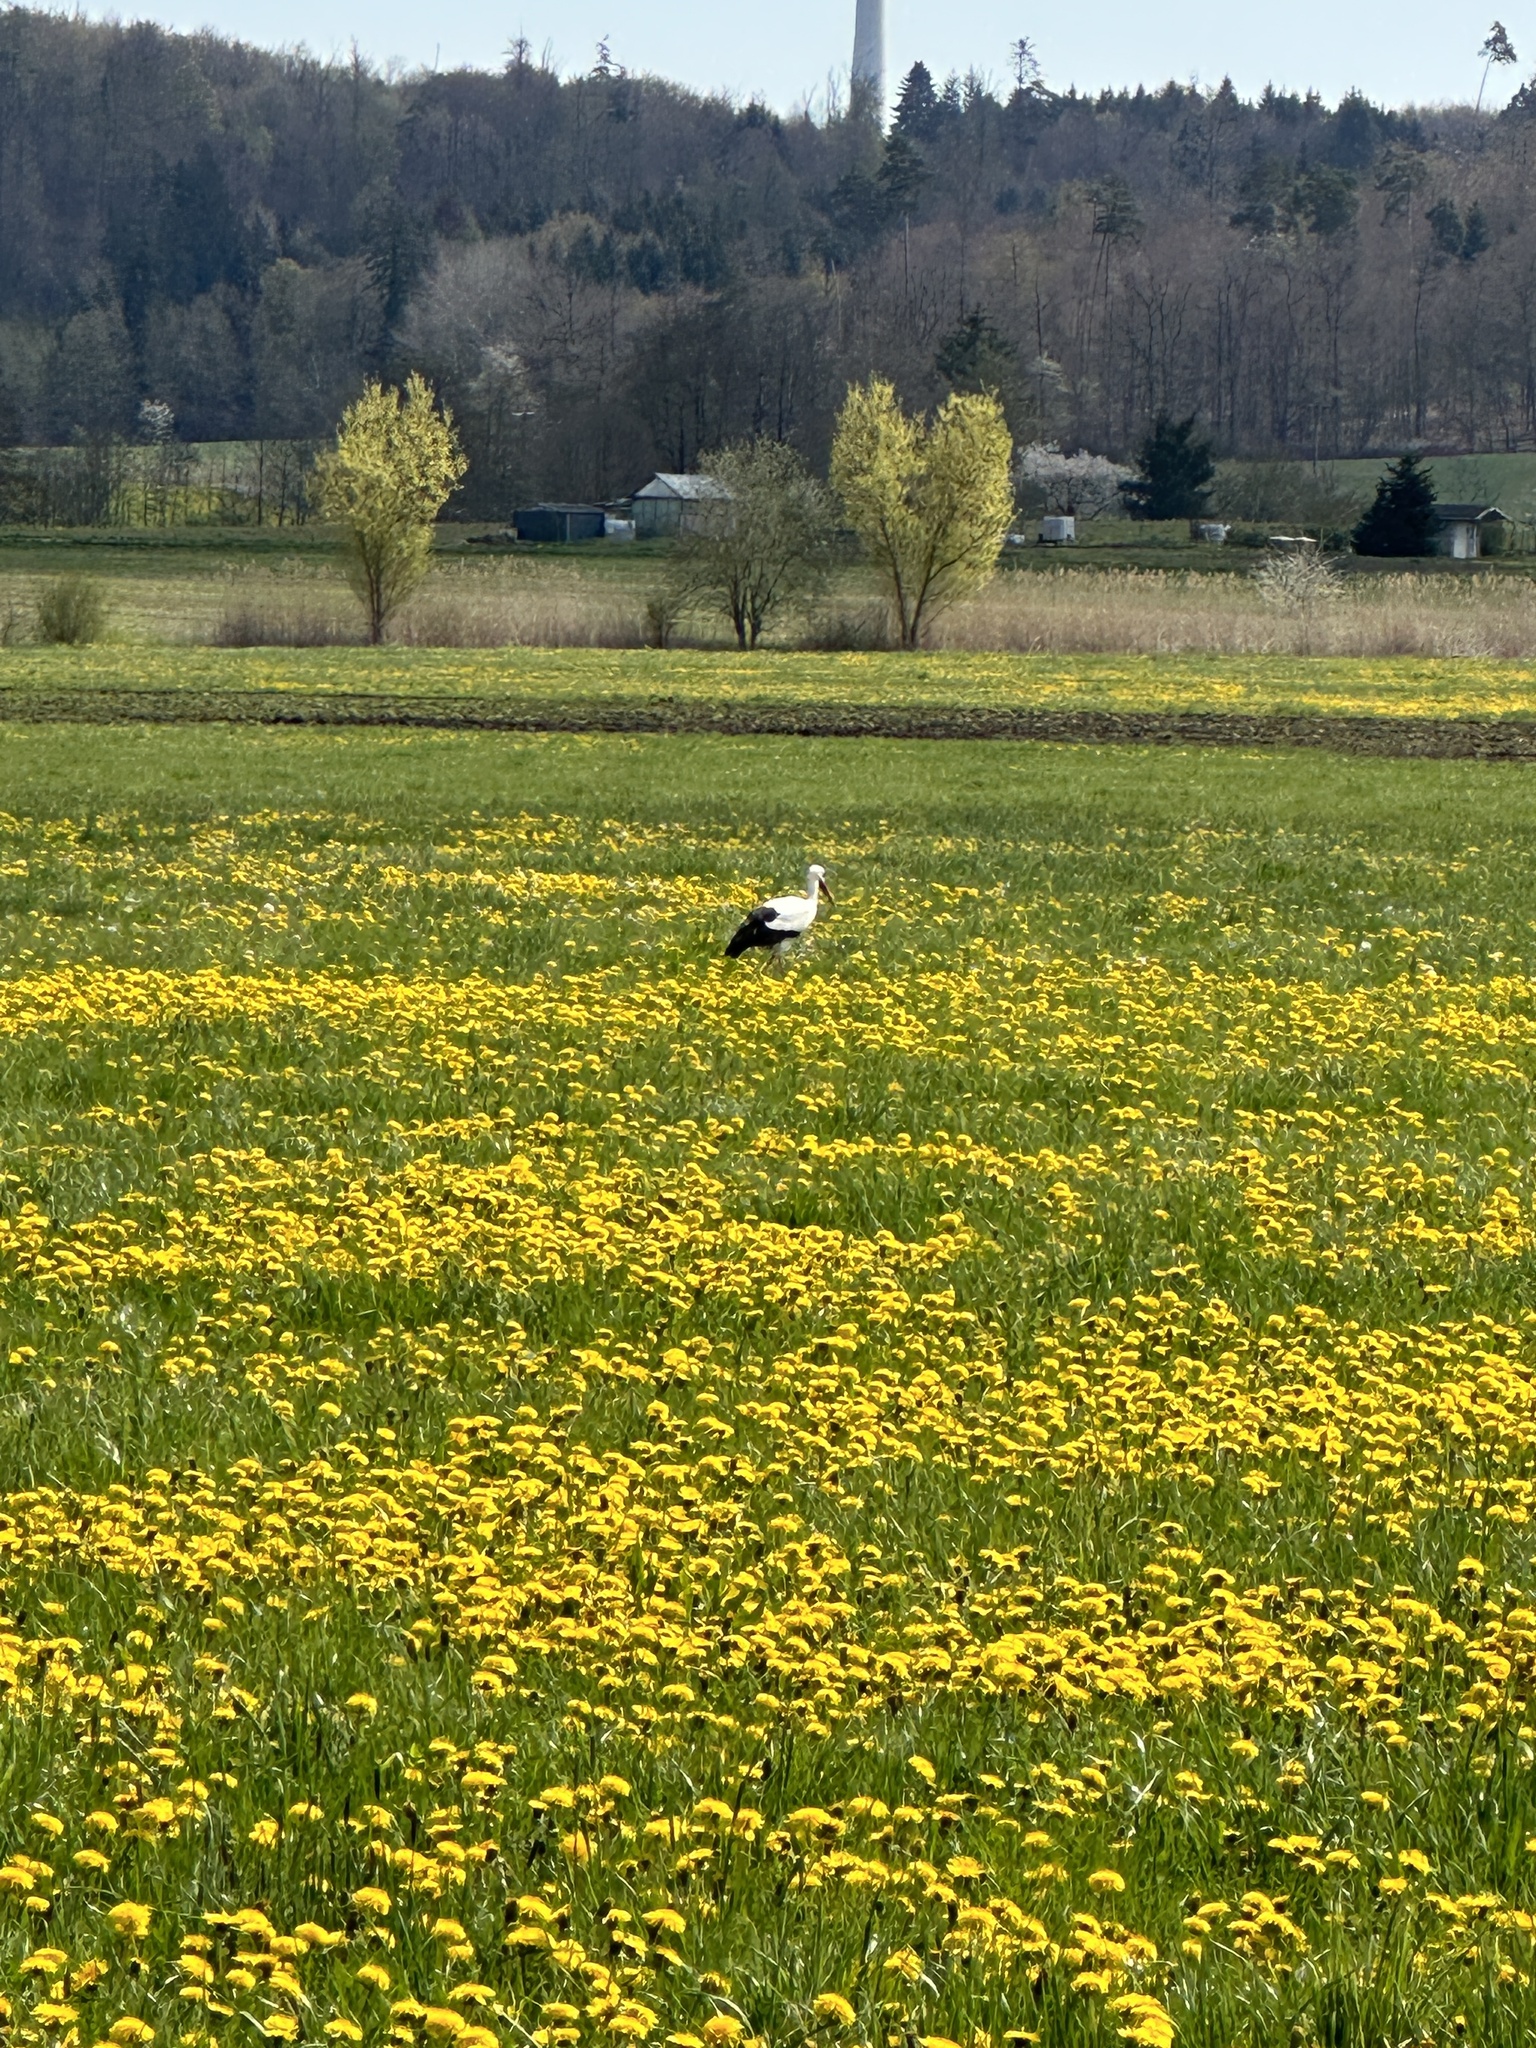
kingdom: Animalia
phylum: Chordata
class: Aves
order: Ciconiiformes
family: Ciconiidae
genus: Ciconia
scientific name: Ciconia ciconia
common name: White stork
